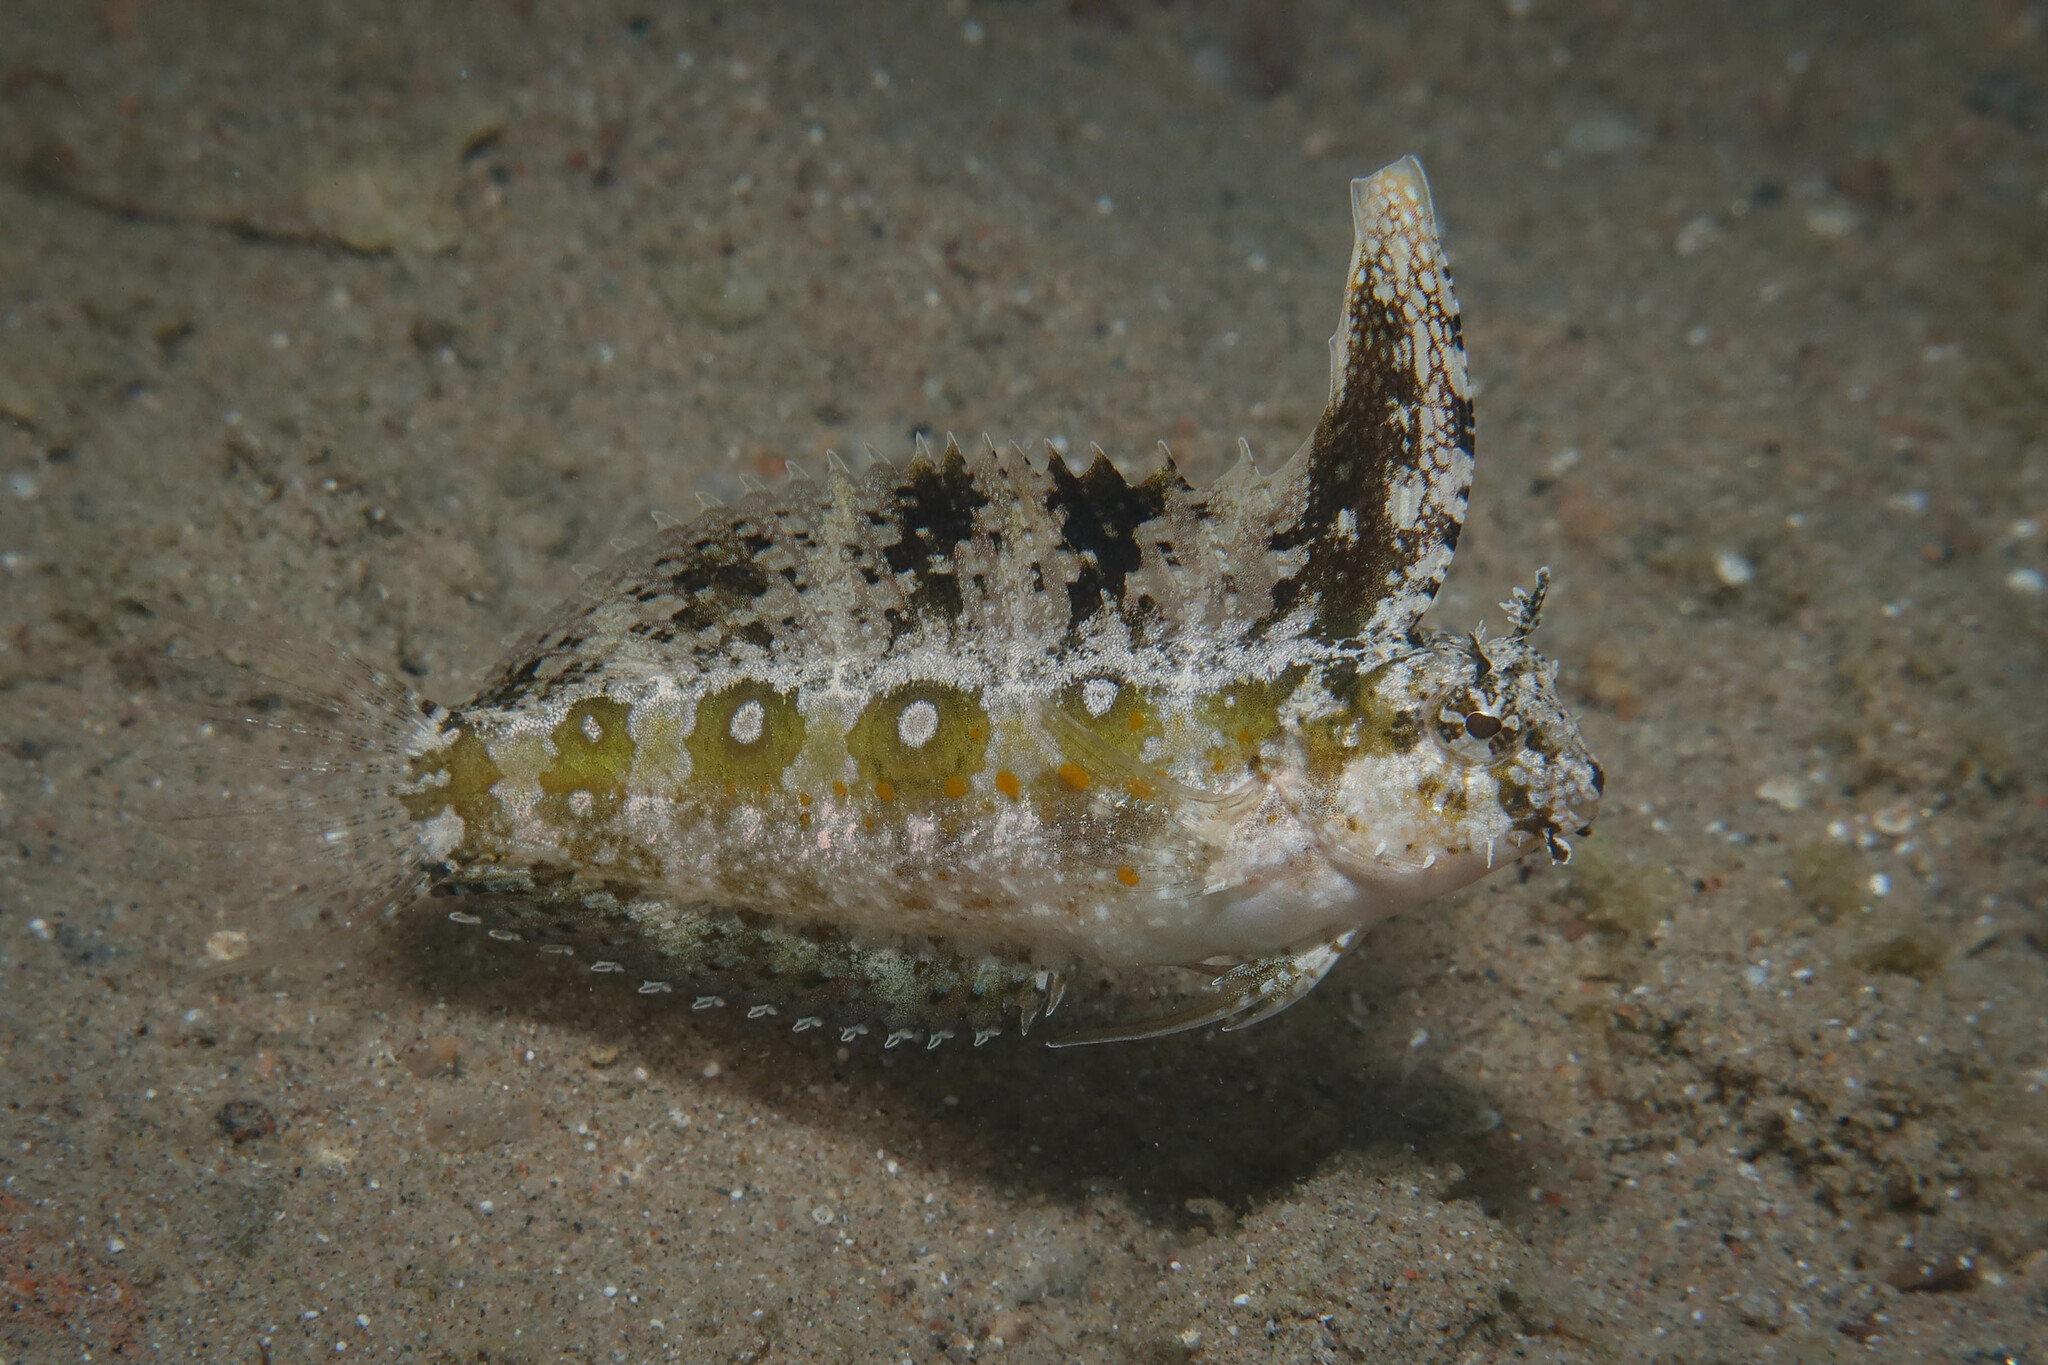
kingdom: Animalia
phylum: Chordata
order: Perciformes
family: Blenniidae
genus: Petroscirtes
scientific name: Petroscirtes mitratus
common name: Floral blenny
